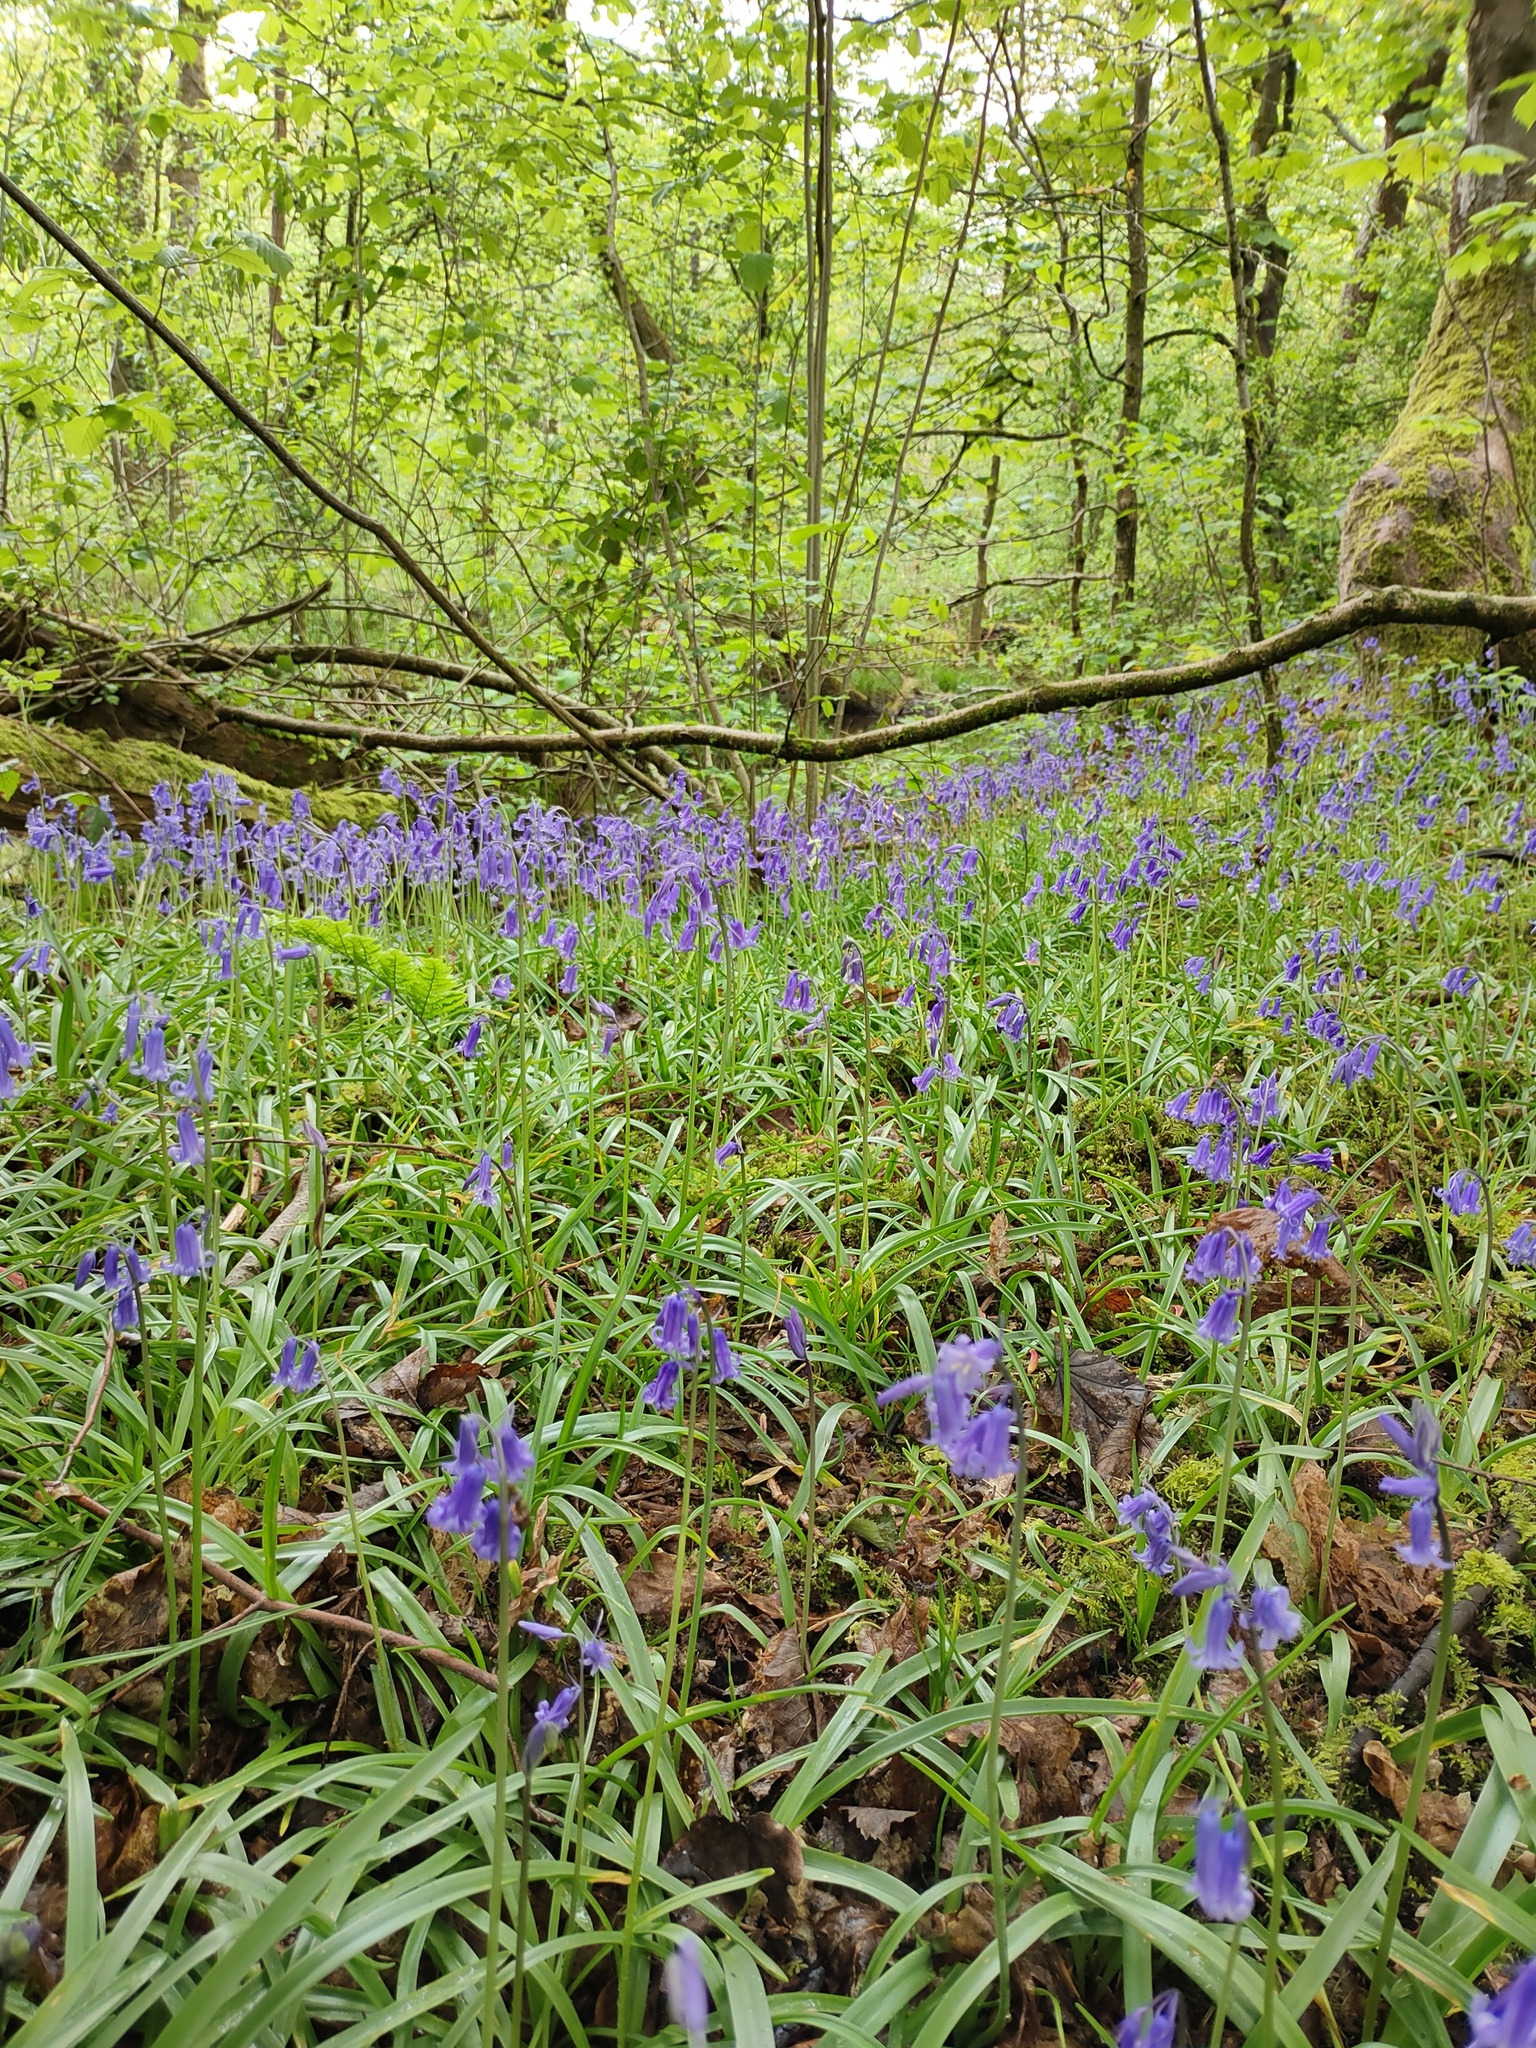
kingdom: Plantae
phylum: Tracheophyta
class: Liliopsida
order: Asparagales
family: Asparagaceae
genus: Hyacinthoides
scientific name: Hyacinthoides non-scripta
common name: Bluebell
